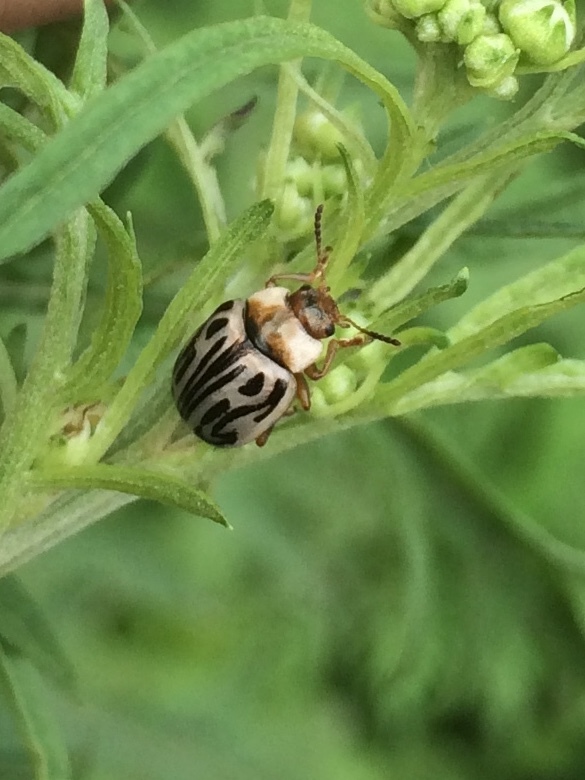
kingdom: Animalia
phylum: Arthropoda
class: Insecta
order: Coleoptera
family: Chrysomelidae
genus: Calligrapha
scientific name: Calligrapha
